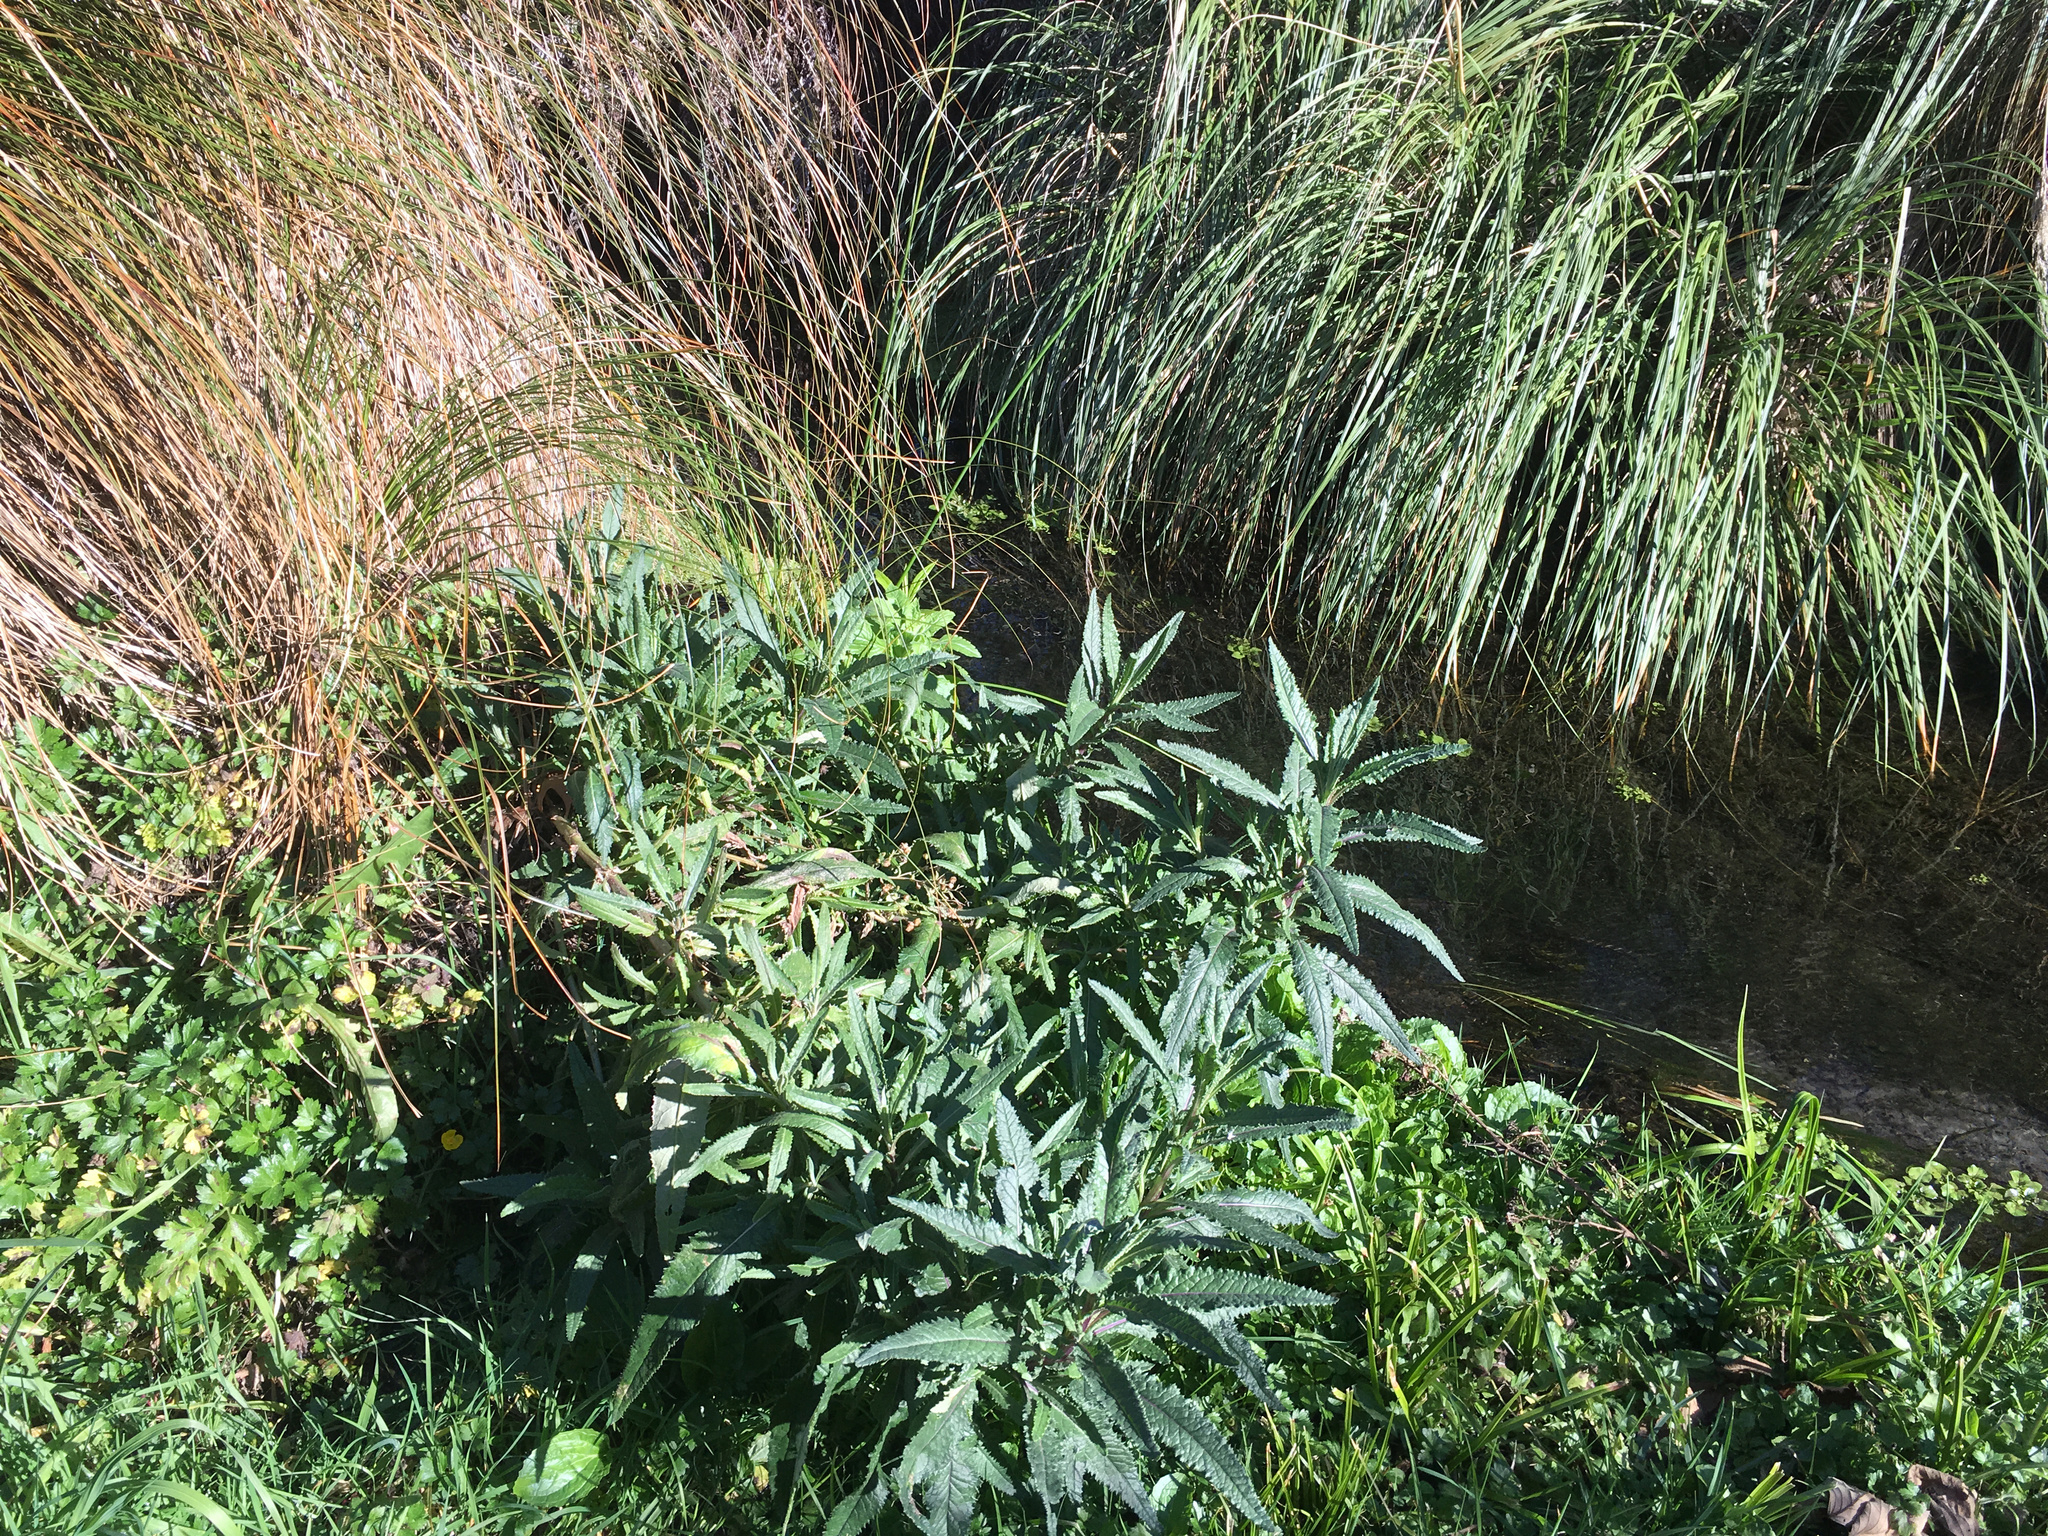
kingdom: Plantae
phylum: Tracheophyta
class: Magnoliopsida
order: Asterales
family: Asteraceae
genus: Senecio
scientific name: Senecio minimus
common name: Toothed fireweed
